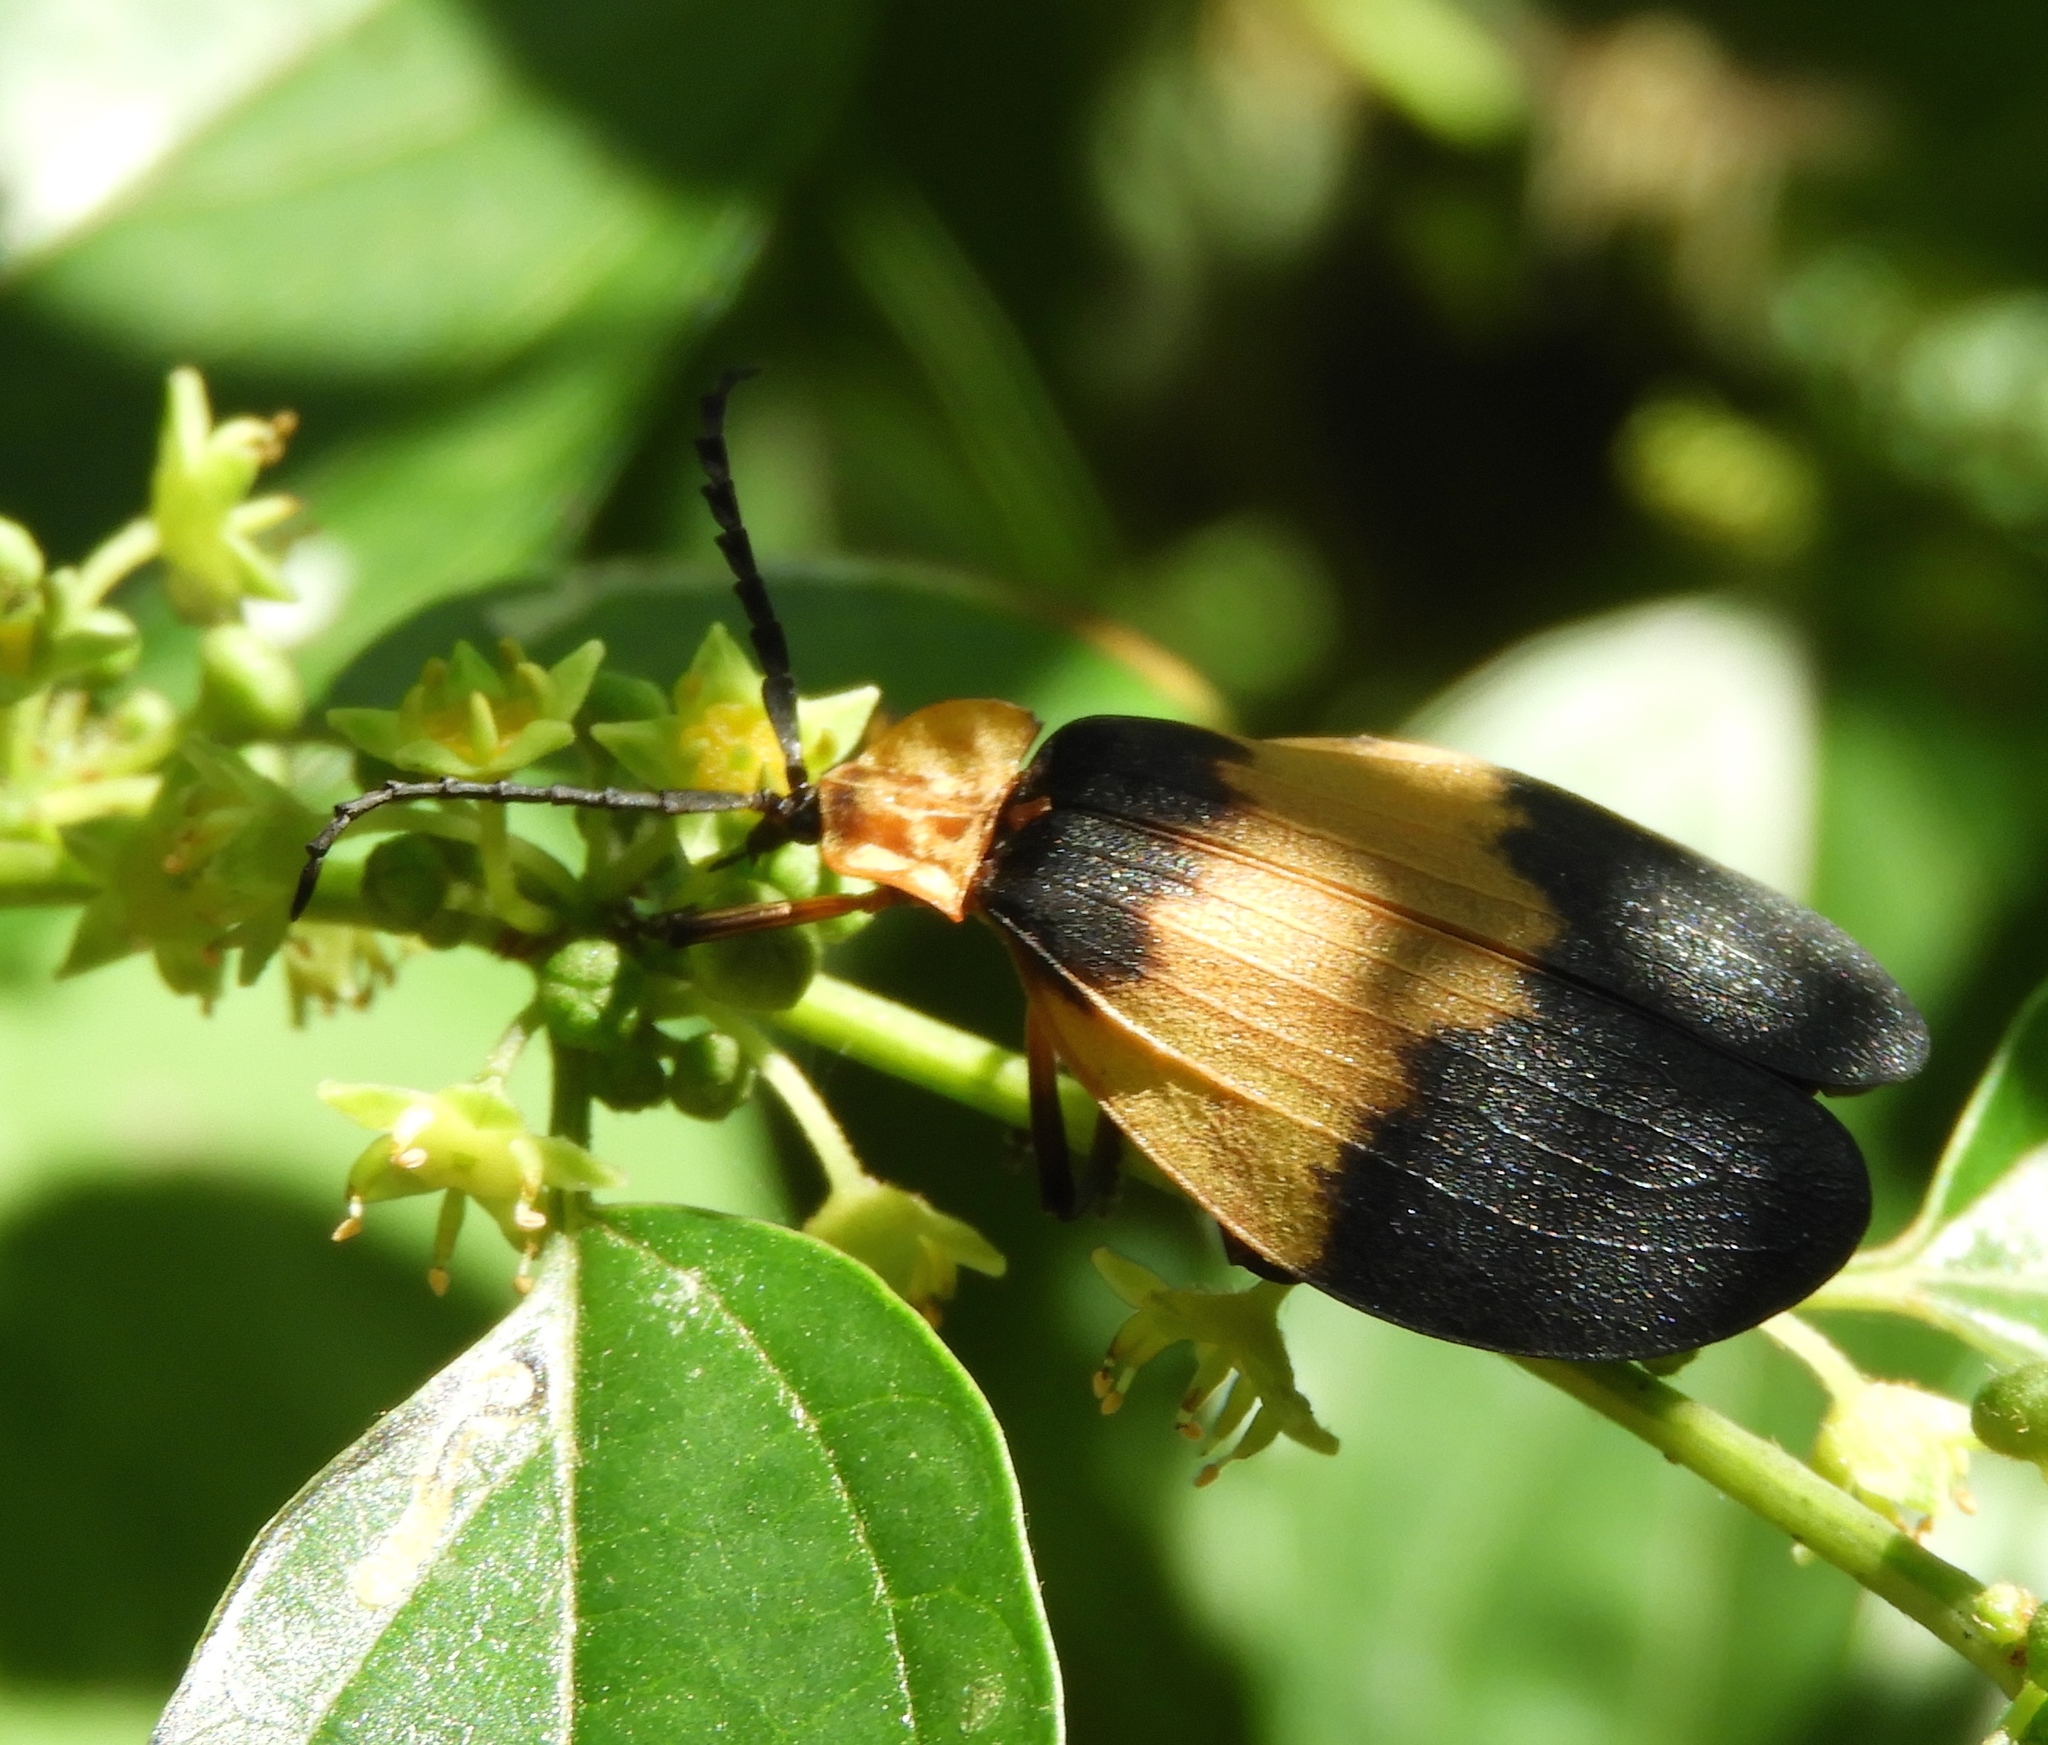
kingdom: Animalia
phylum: Arthropoda
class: Insecta
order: Coleoptera
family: Lycidae
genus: Lycus
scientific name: Lycus
